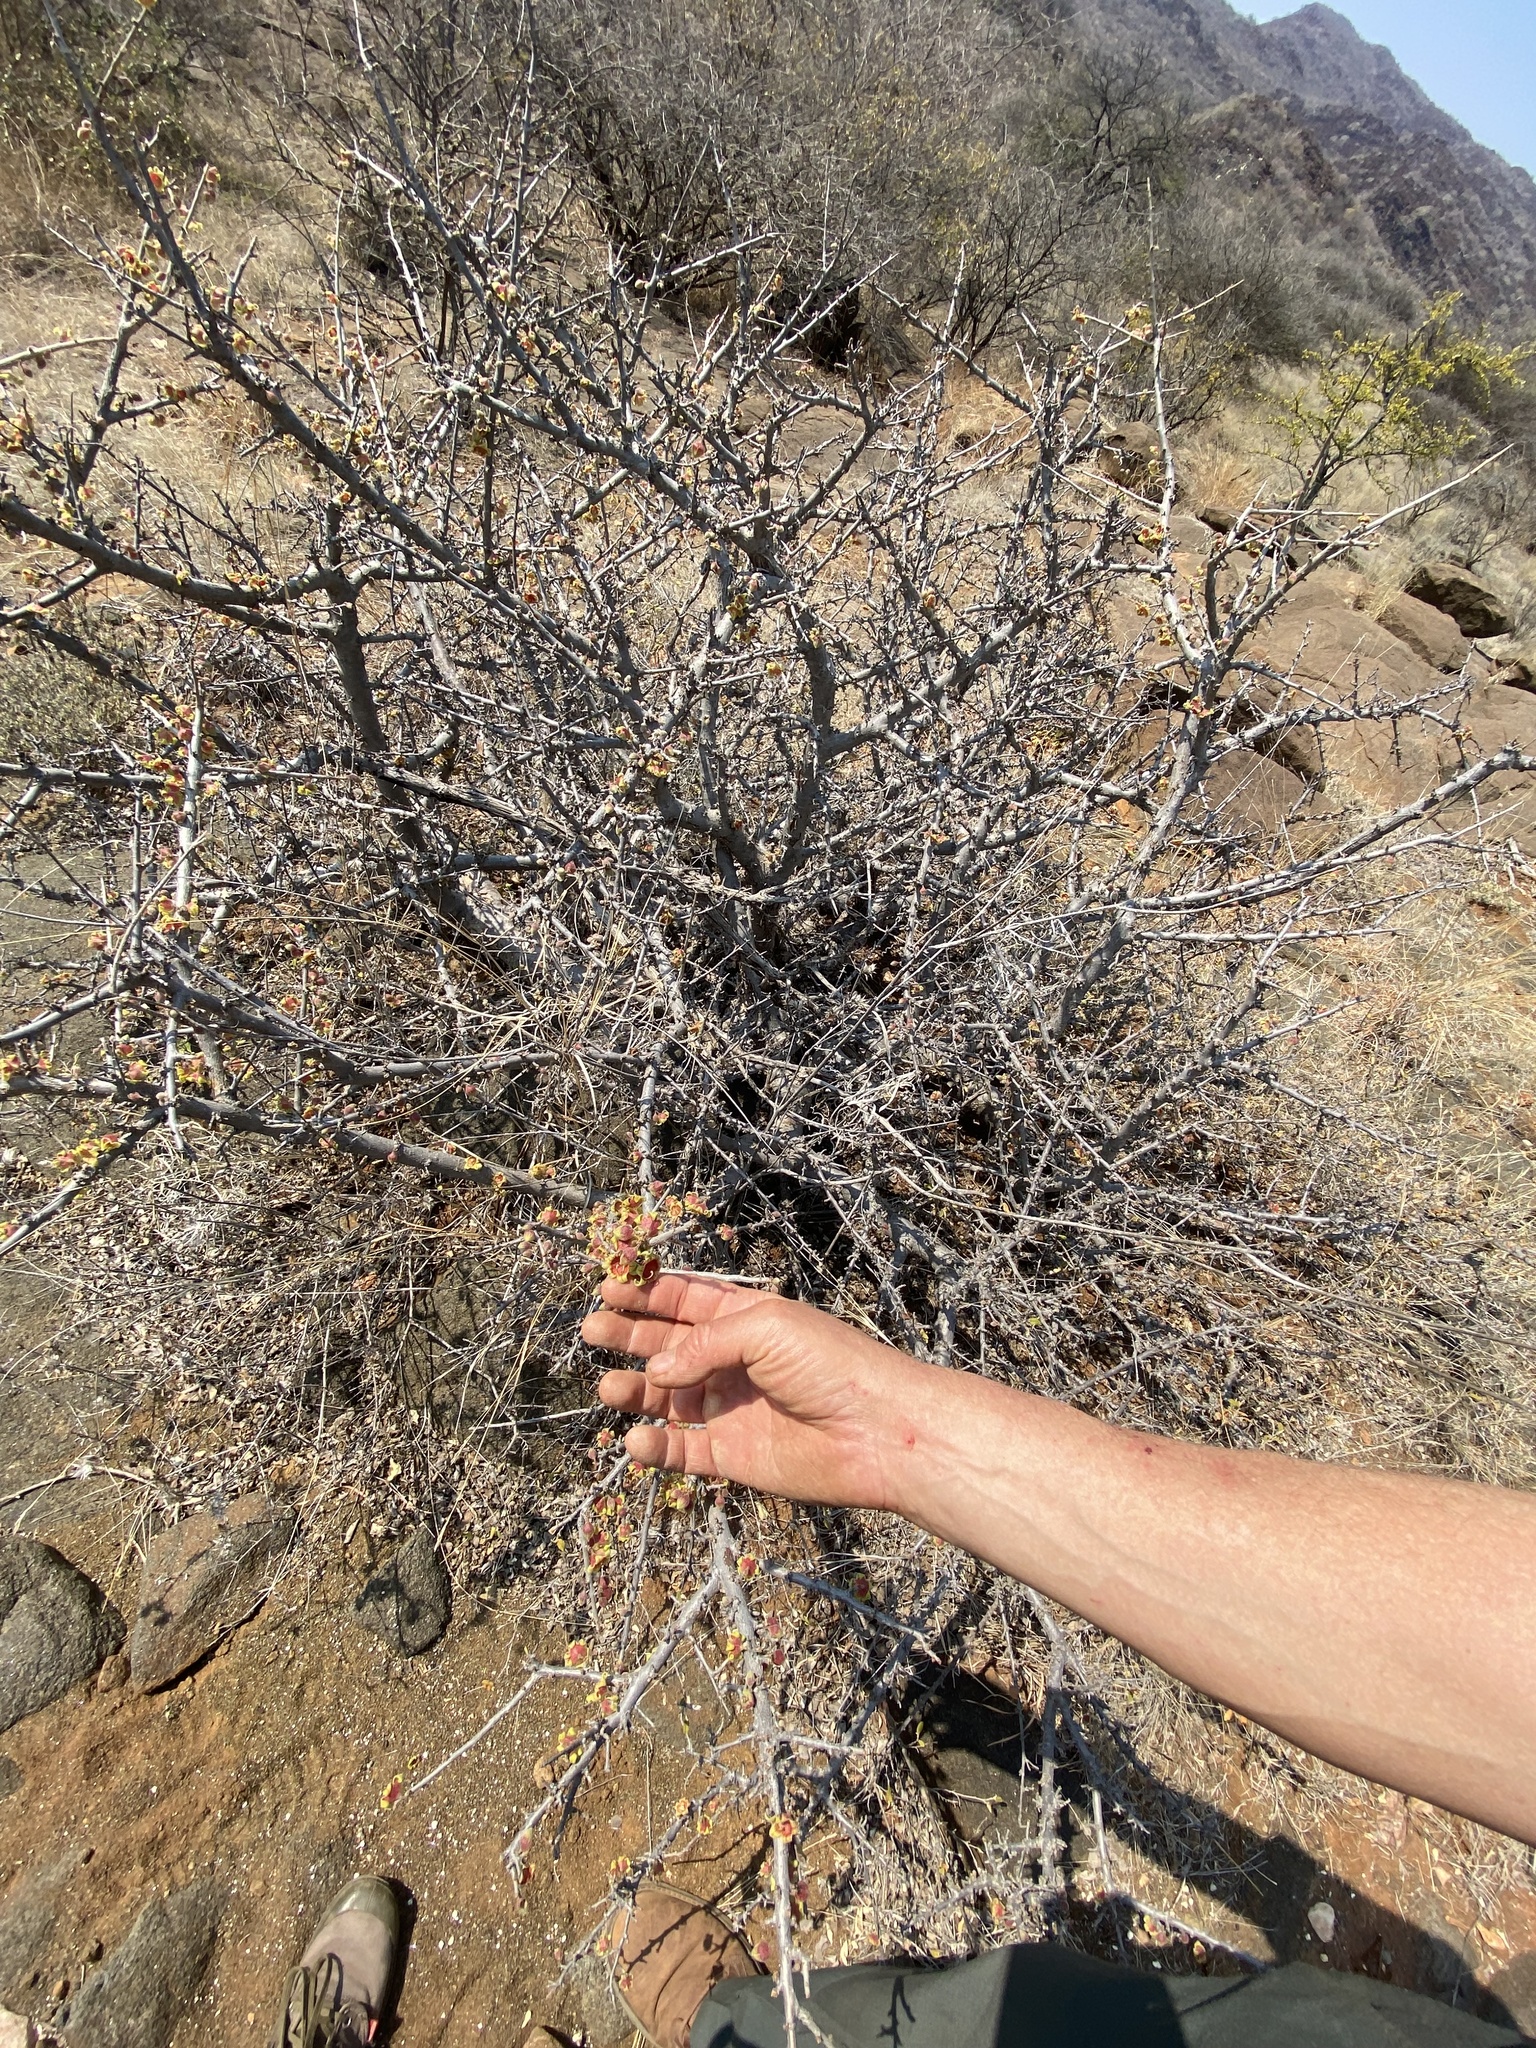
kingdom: Plantae
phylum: Tracheophyta
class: Magnoliopsida
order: Malvales
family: Malvaceae
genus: Sterculia
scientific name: Sterculia rogersii
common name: Star-chestnut
